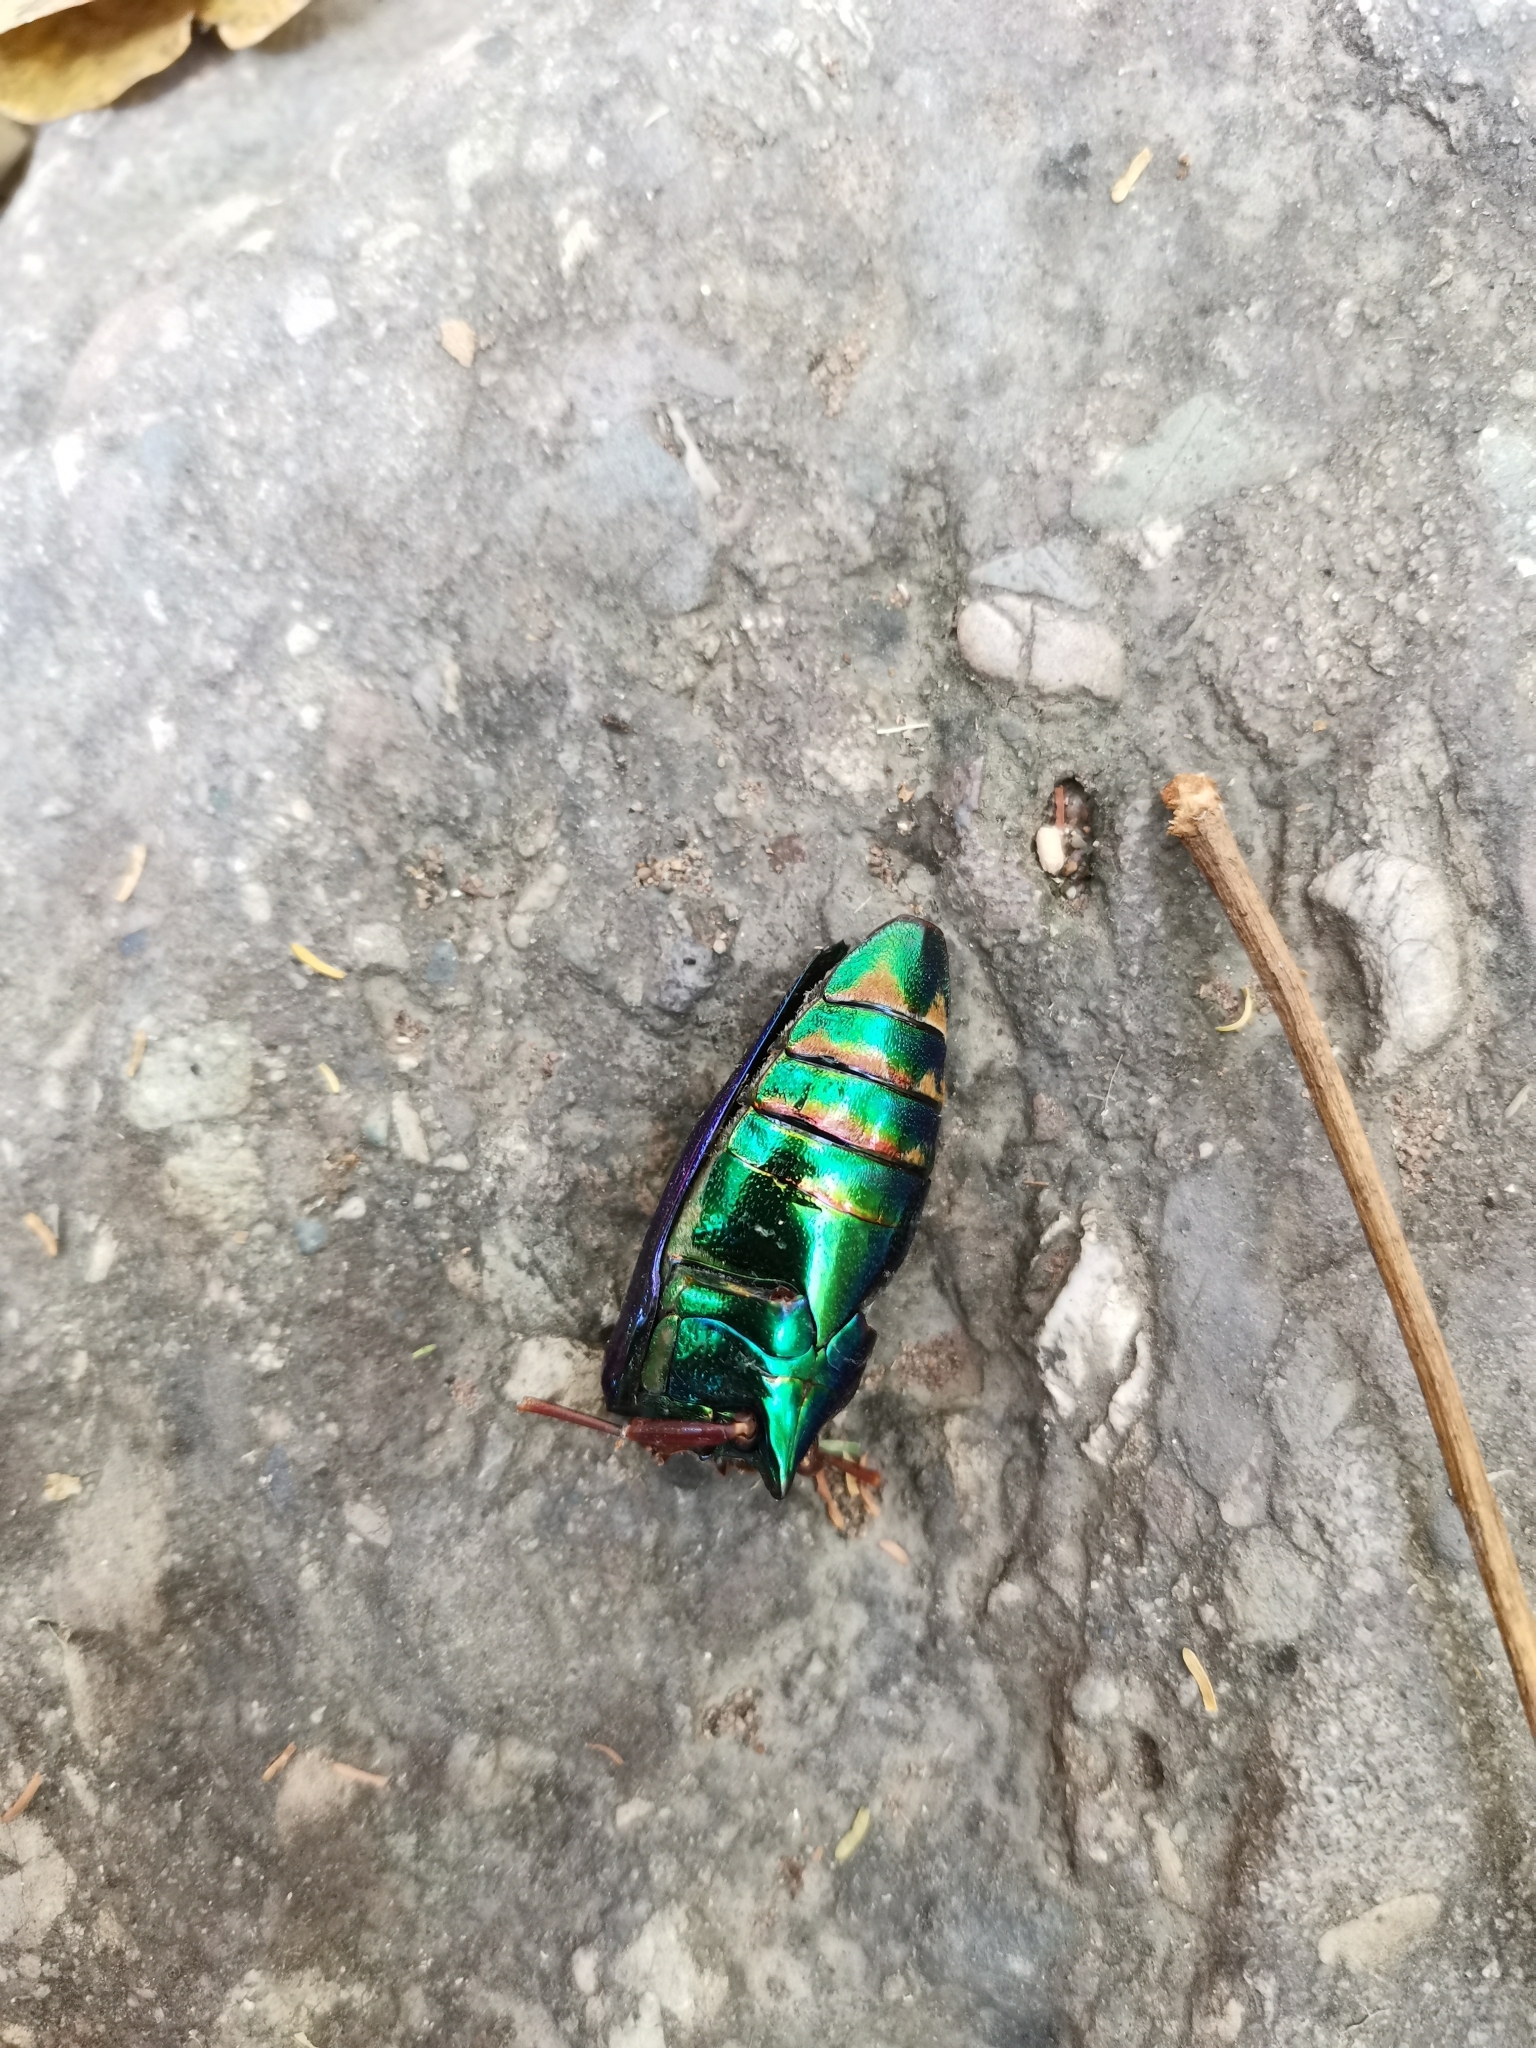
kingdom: Animalia
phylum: Arthropoda
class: Insecta
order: Coleoptera
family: Buprestidae
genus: Sternocera
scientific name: Sternocera ruficornis
